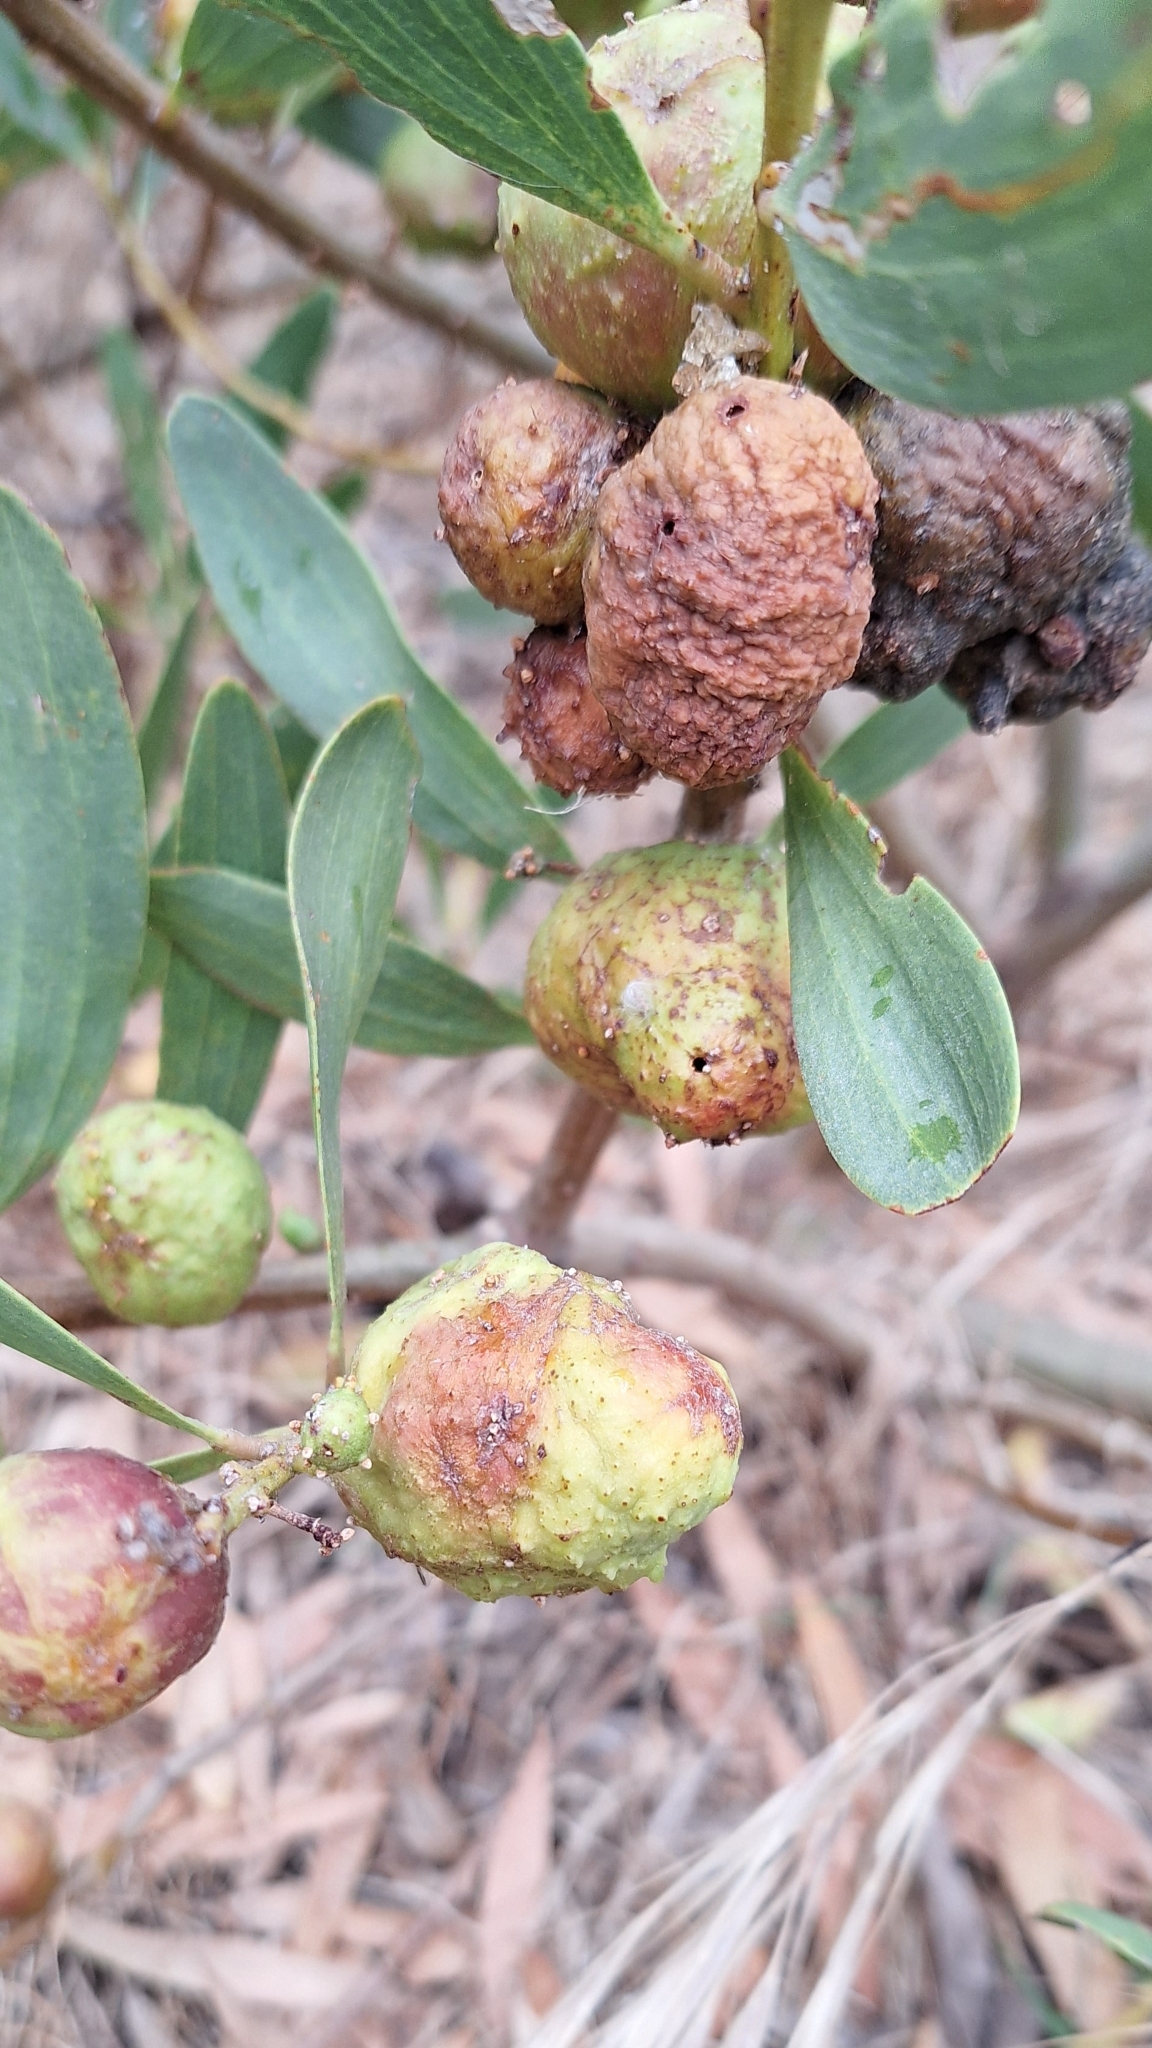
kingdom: Animalia
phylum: Arthropoda
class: Insecta
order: Hymenoptera
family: Pteromalidae
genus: Trichilogaster
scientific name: Trichilogaster acaciaelongifoliae
